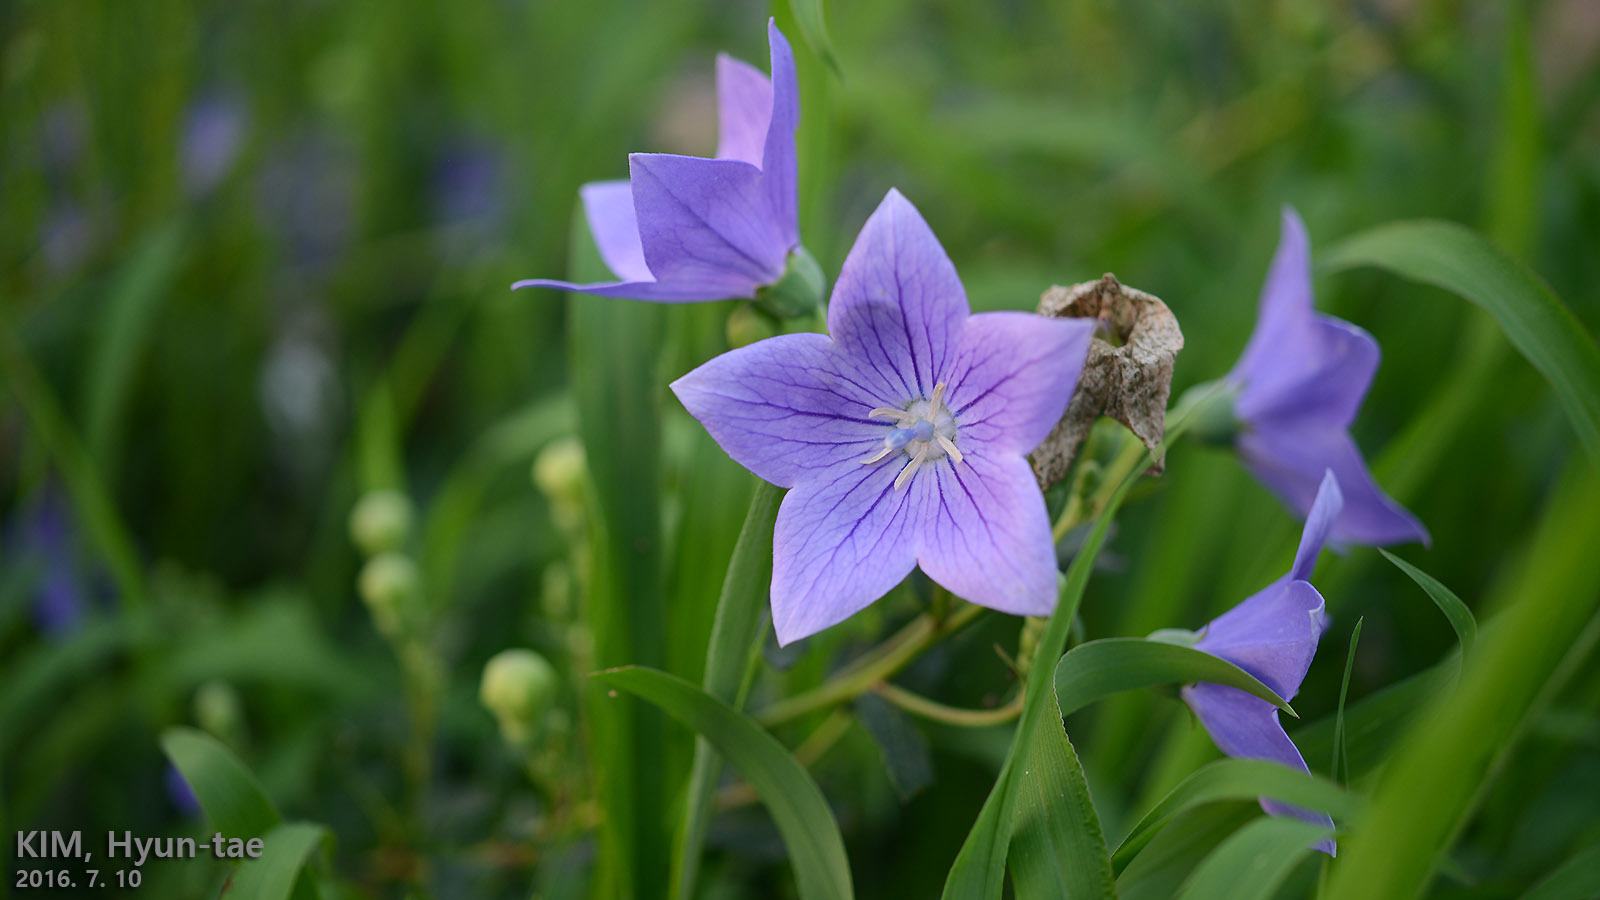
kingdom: Plantae
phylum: Tracheophyta
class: Magnoliopsida
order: Asterales
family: Campanulaceae
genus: Platycodon
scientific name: Platycodon grandiflorus
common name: Balloon-flower
